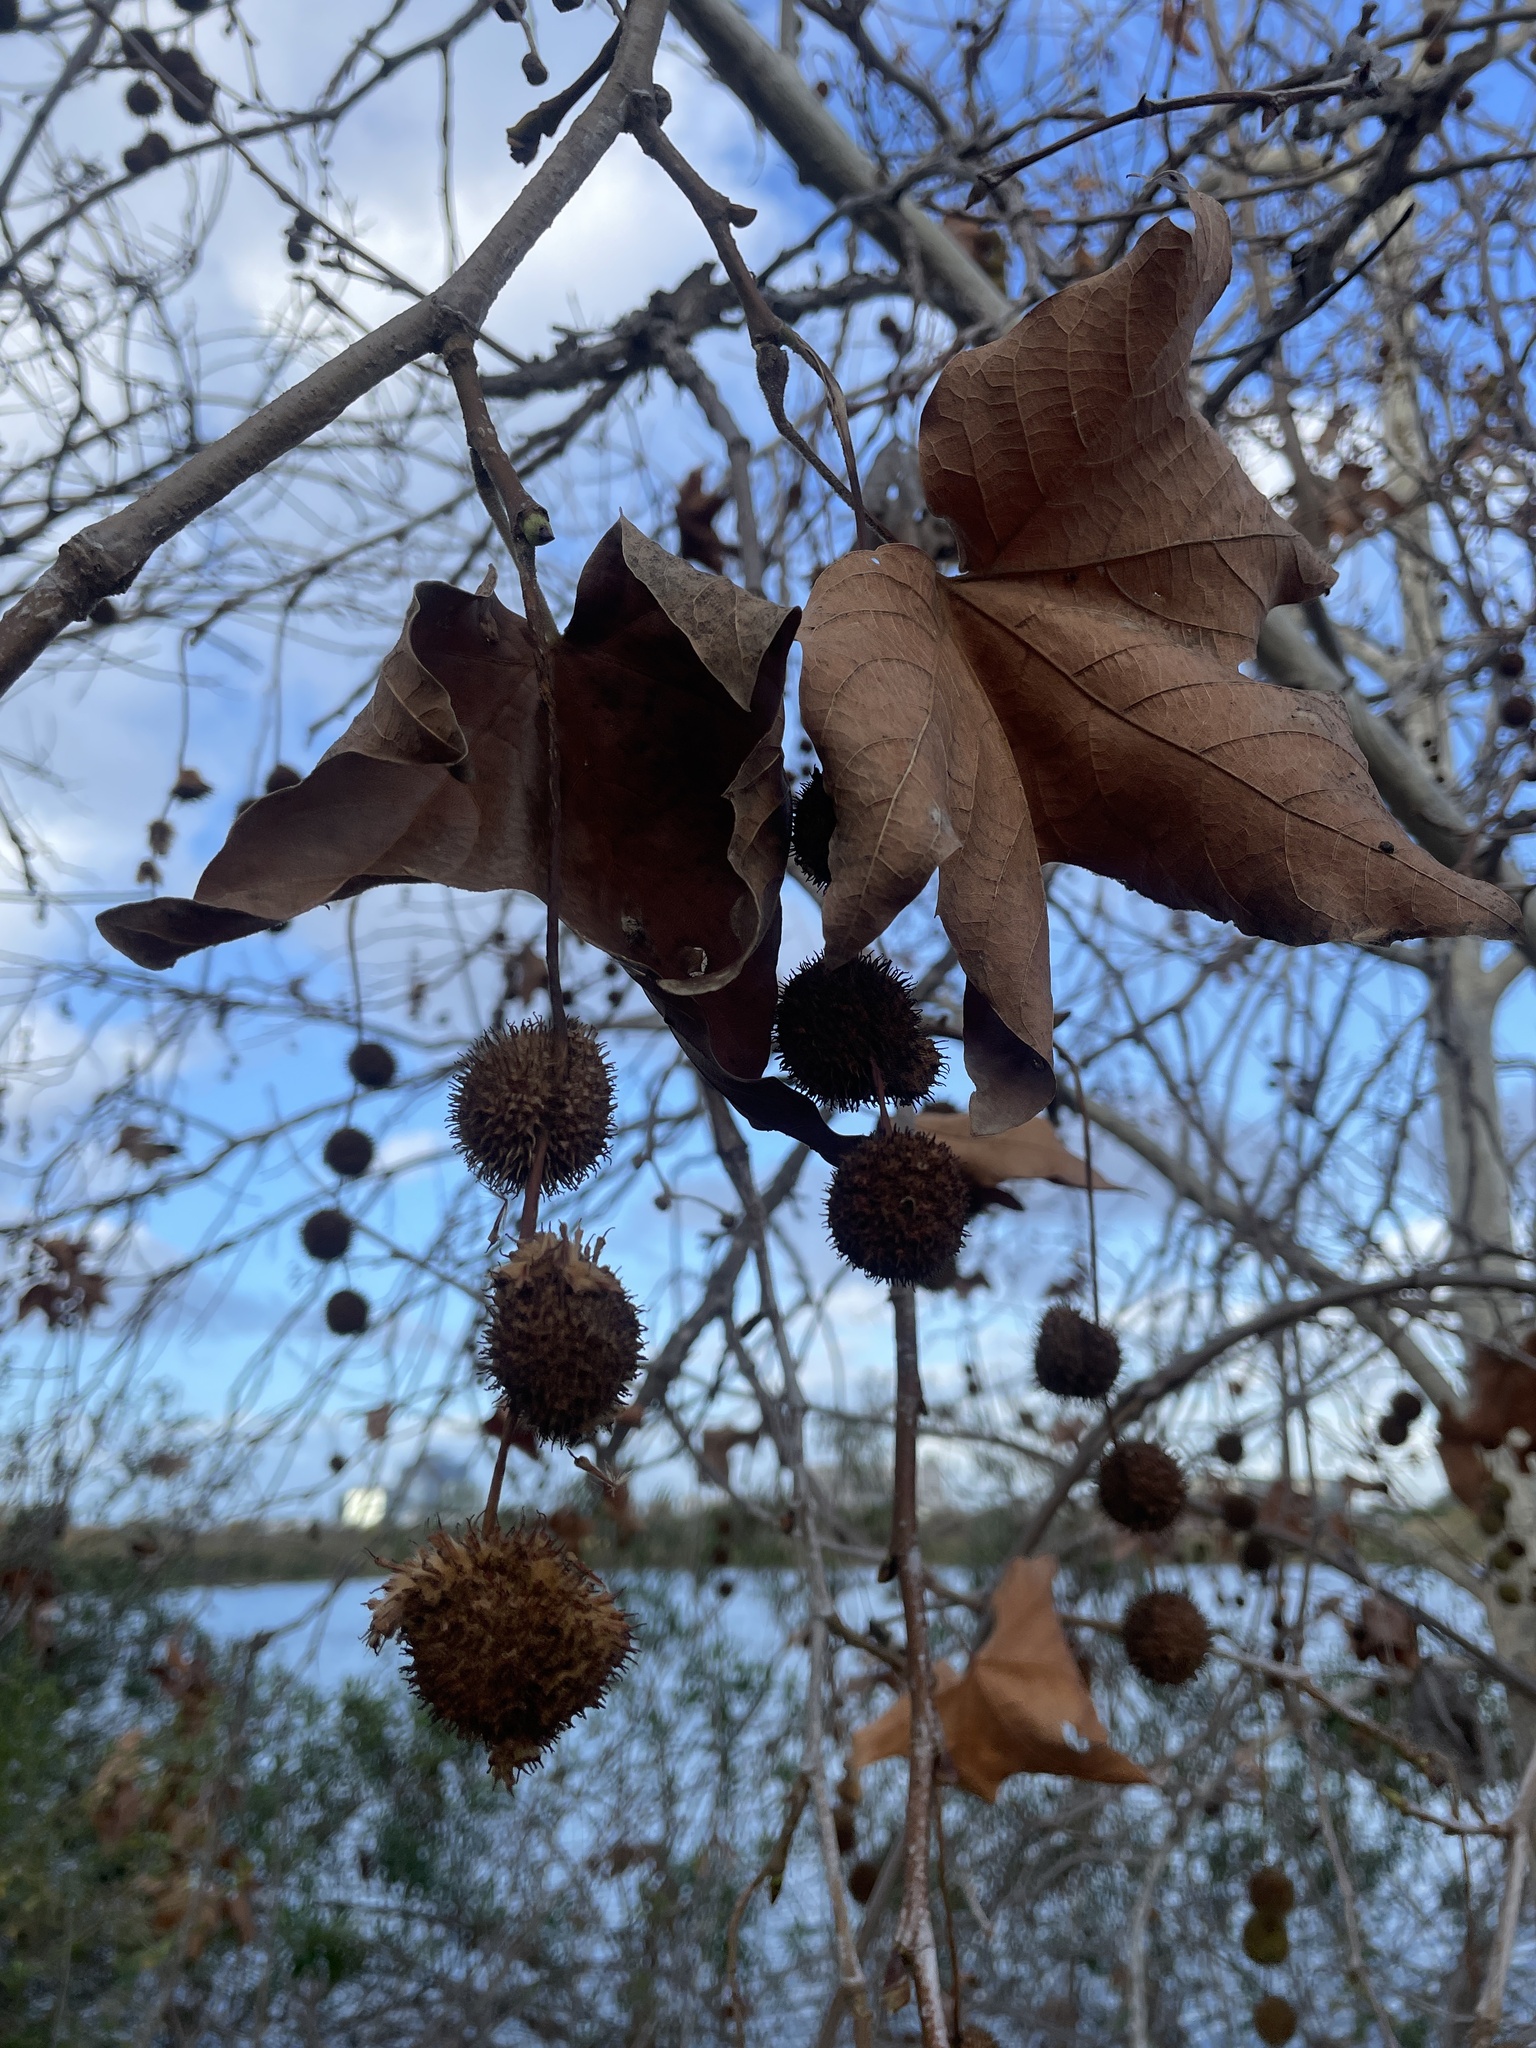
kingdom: Plantae
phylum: Tracheophyta
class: Magnoliopsida
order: Proteales
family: Platanaceae
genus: Platanus
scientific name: Platanus racemosa
